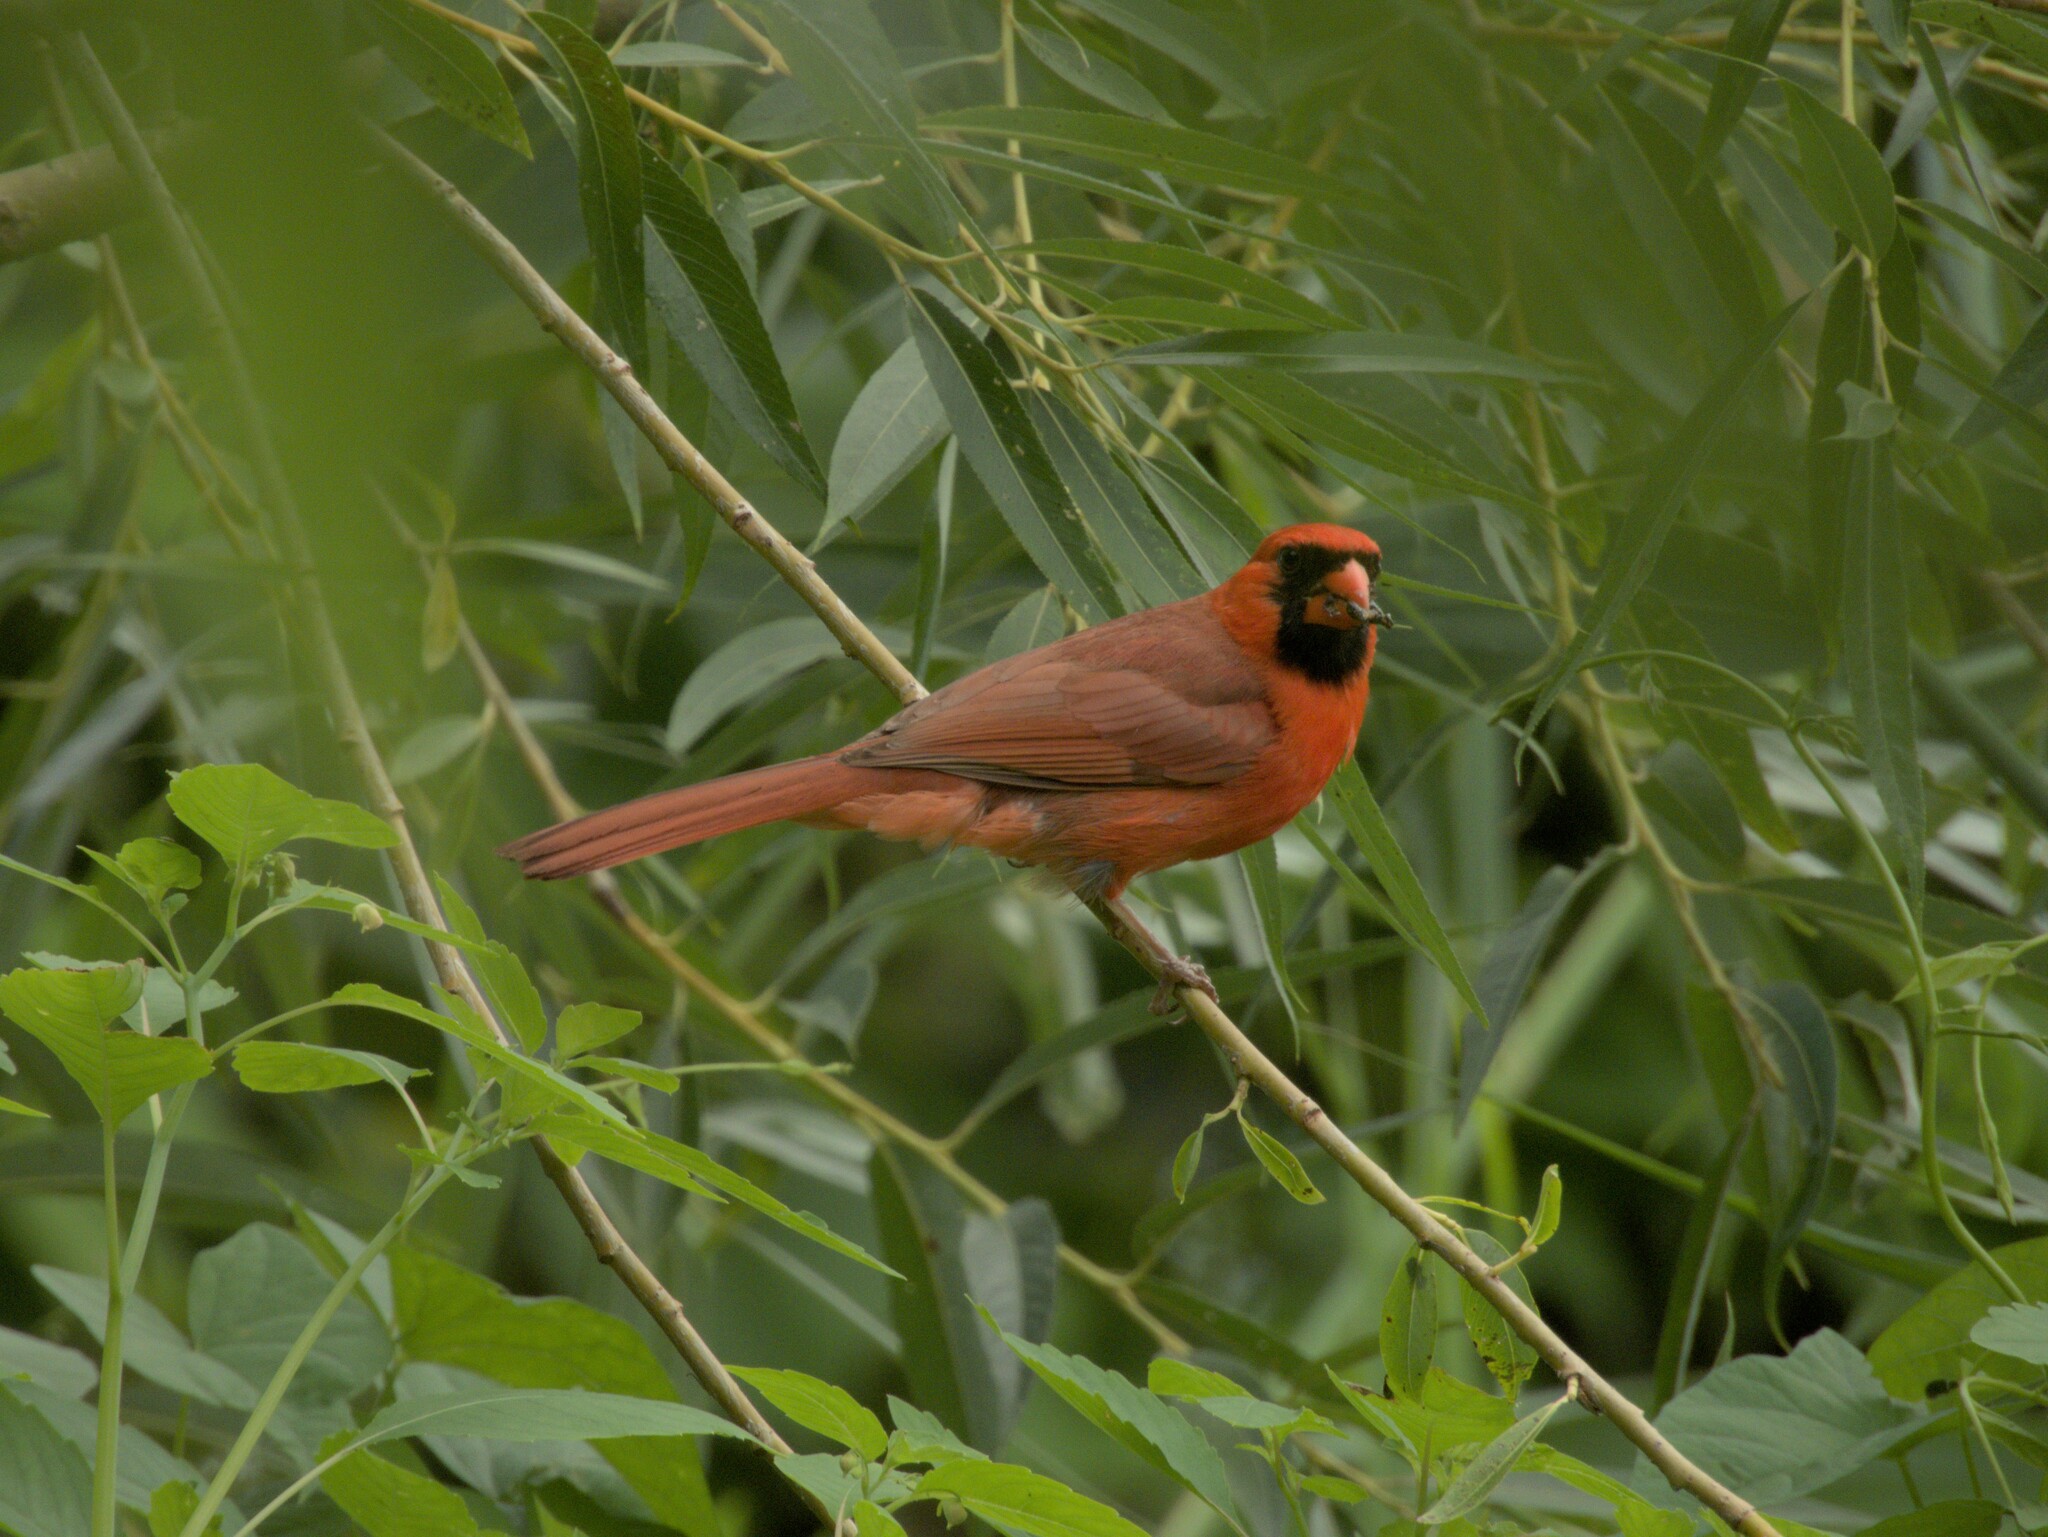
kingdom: Animalia
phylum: Chordata
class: Aves
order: Passeriformes
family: Cardinalidae
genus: Cardinalis
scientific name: Cardinalis cardinalis
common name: Northern cardinal
